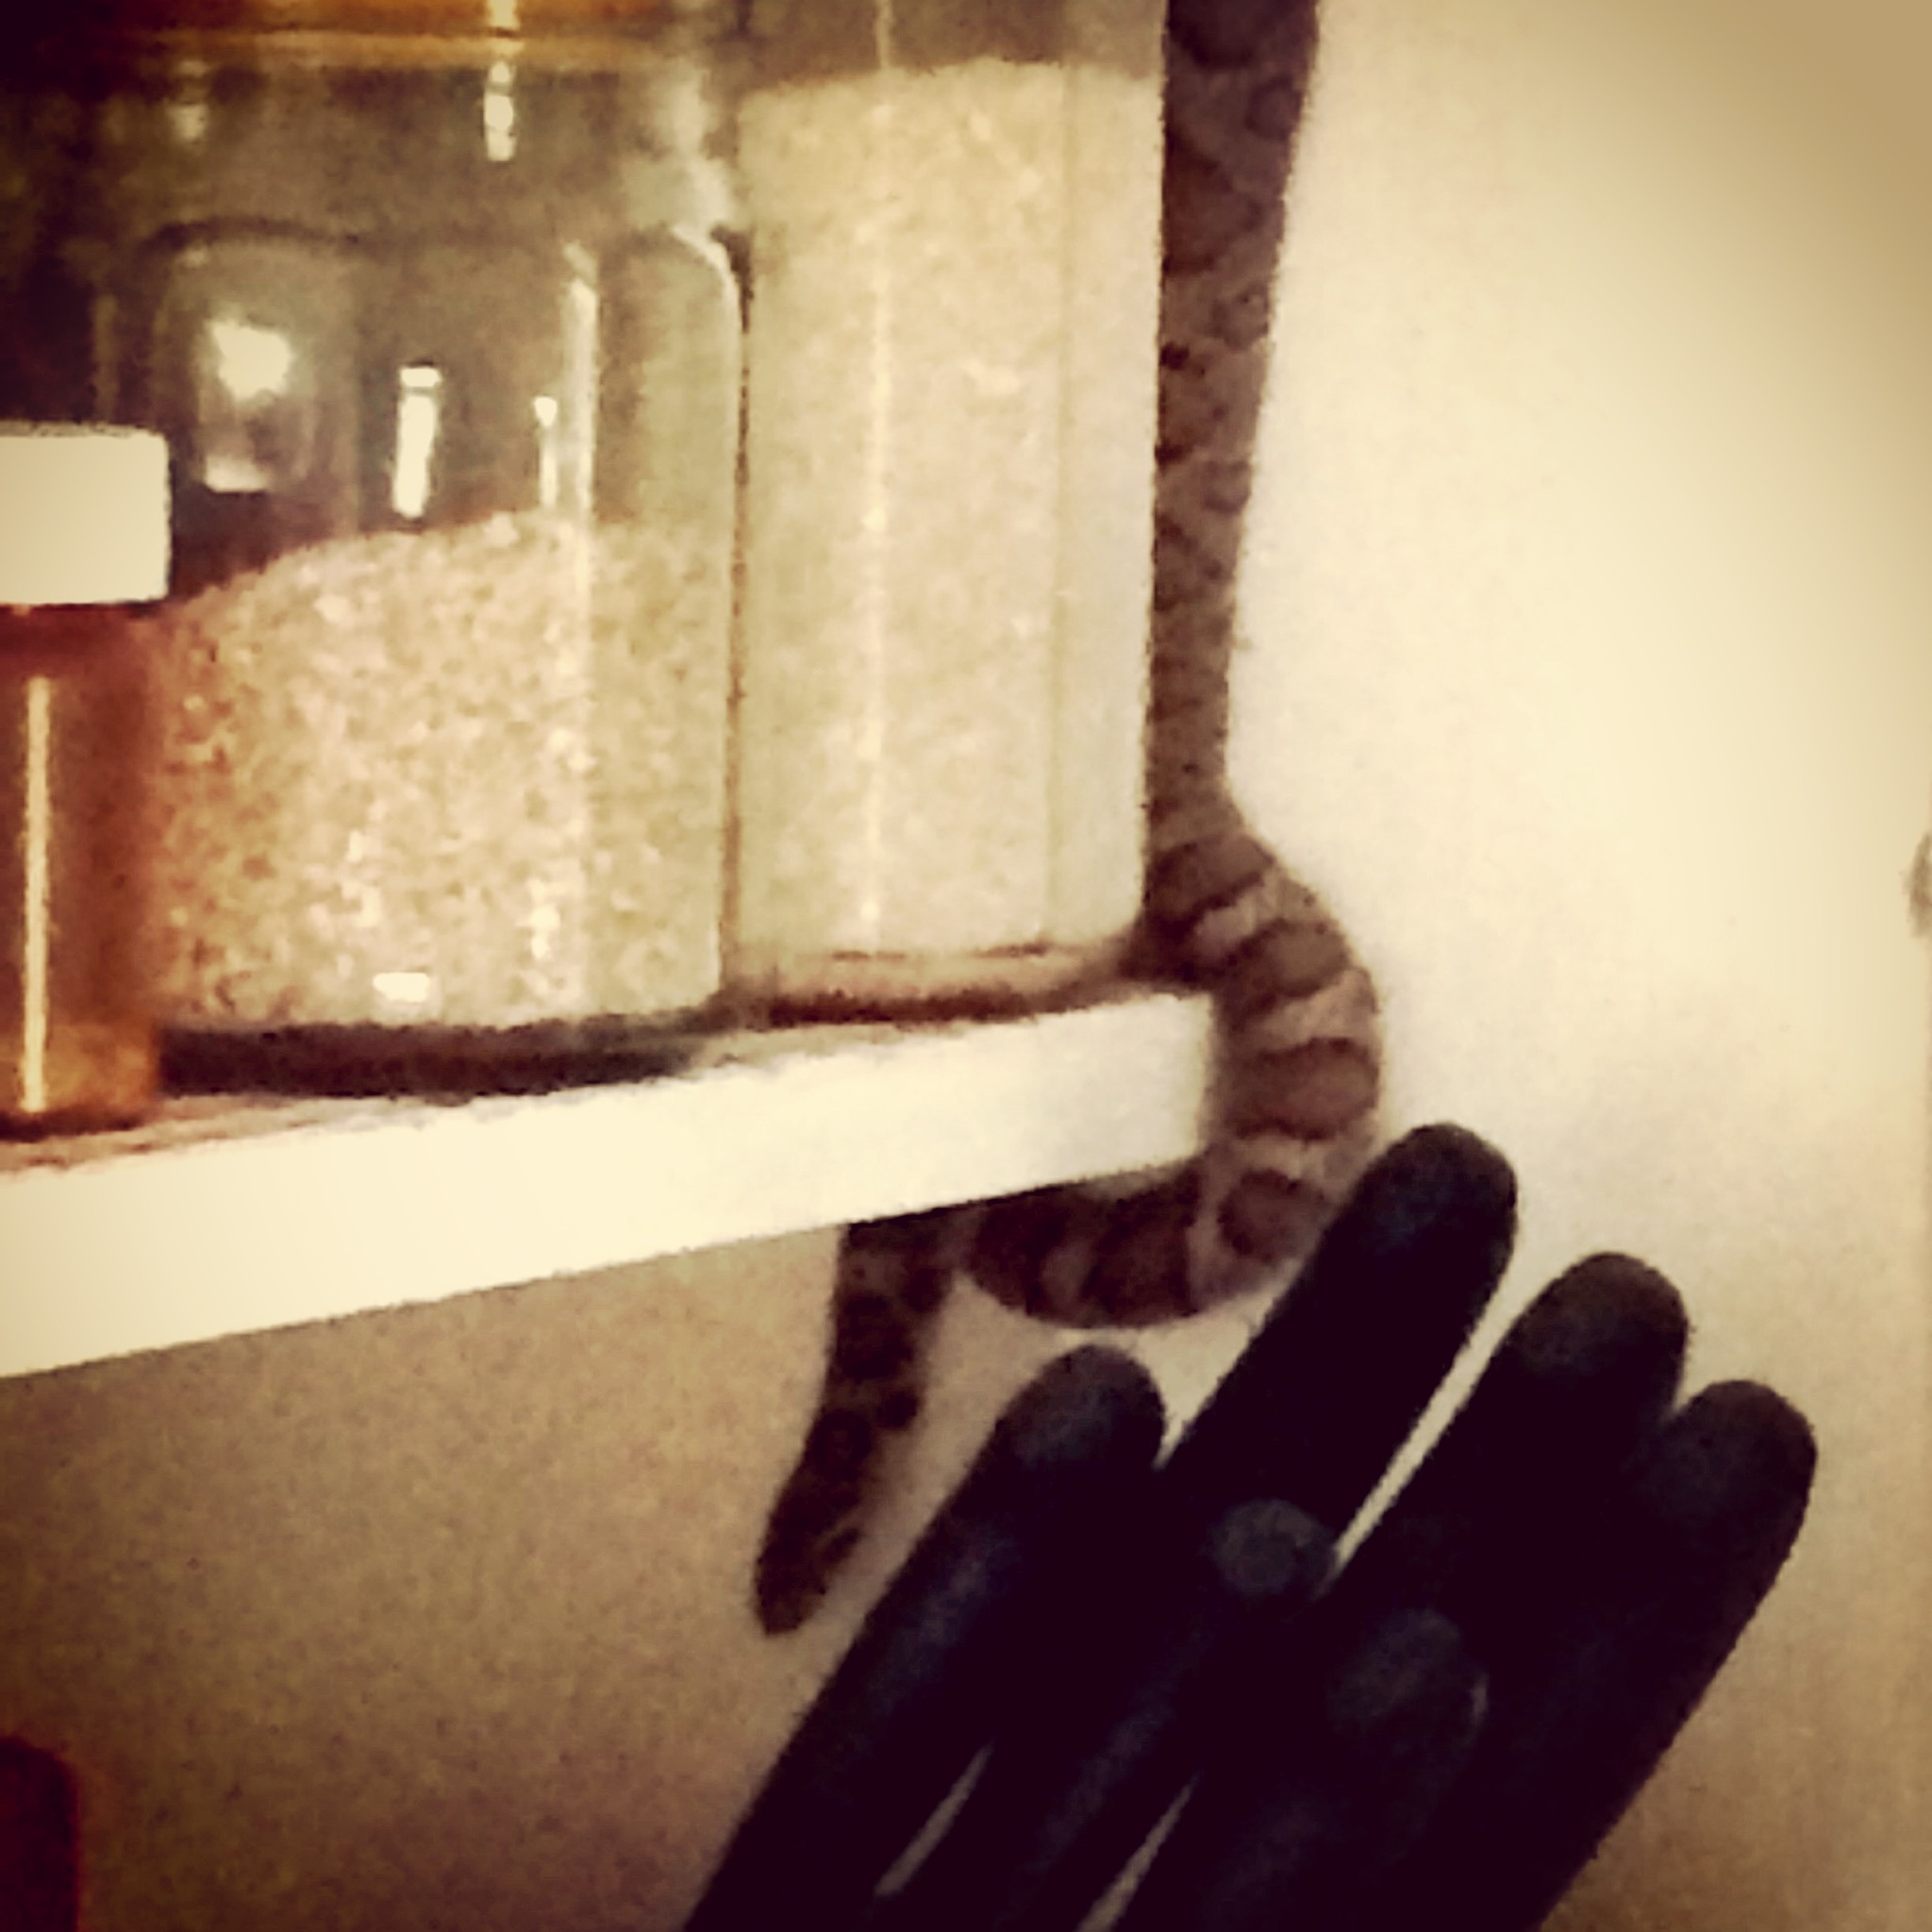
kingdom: Animalia
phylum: Chordata
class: Squamata
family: Colubridae
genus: Lampropeltis
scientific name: Lampropeltis triangulum
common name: Eastern milksnake
